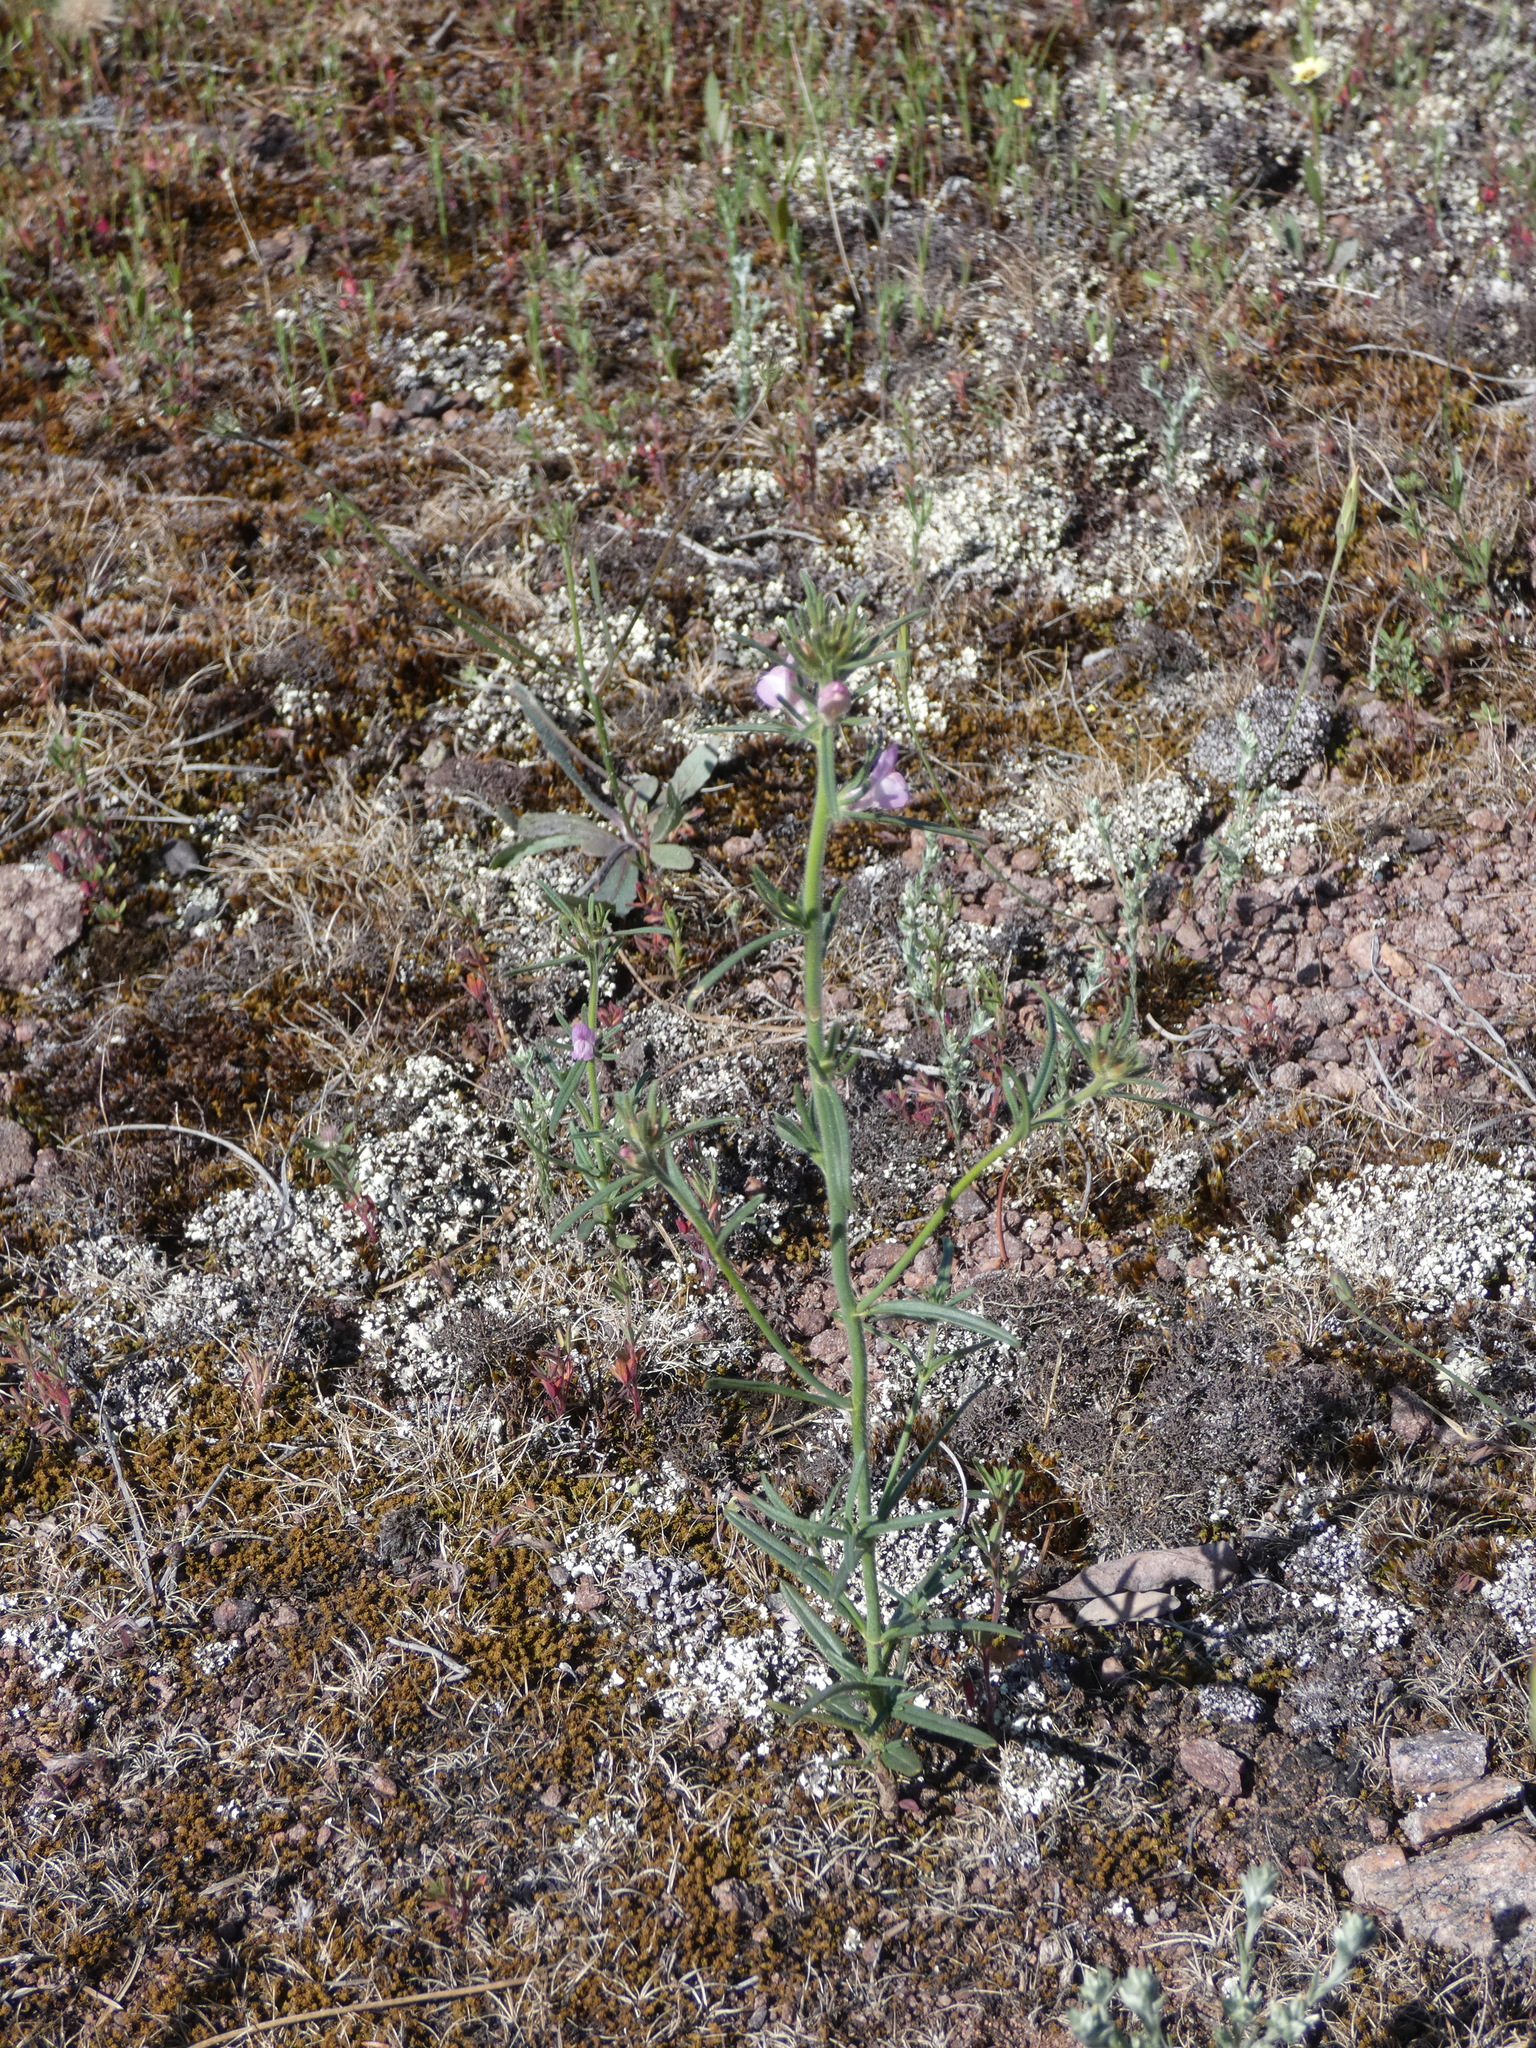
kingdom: Plantae
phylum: Tracheophyta
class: Magnoliopsida
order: Lamiales
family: Plantaginaceae
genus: Misopates
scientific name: Misopates orontium
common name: Weasel's-snout
